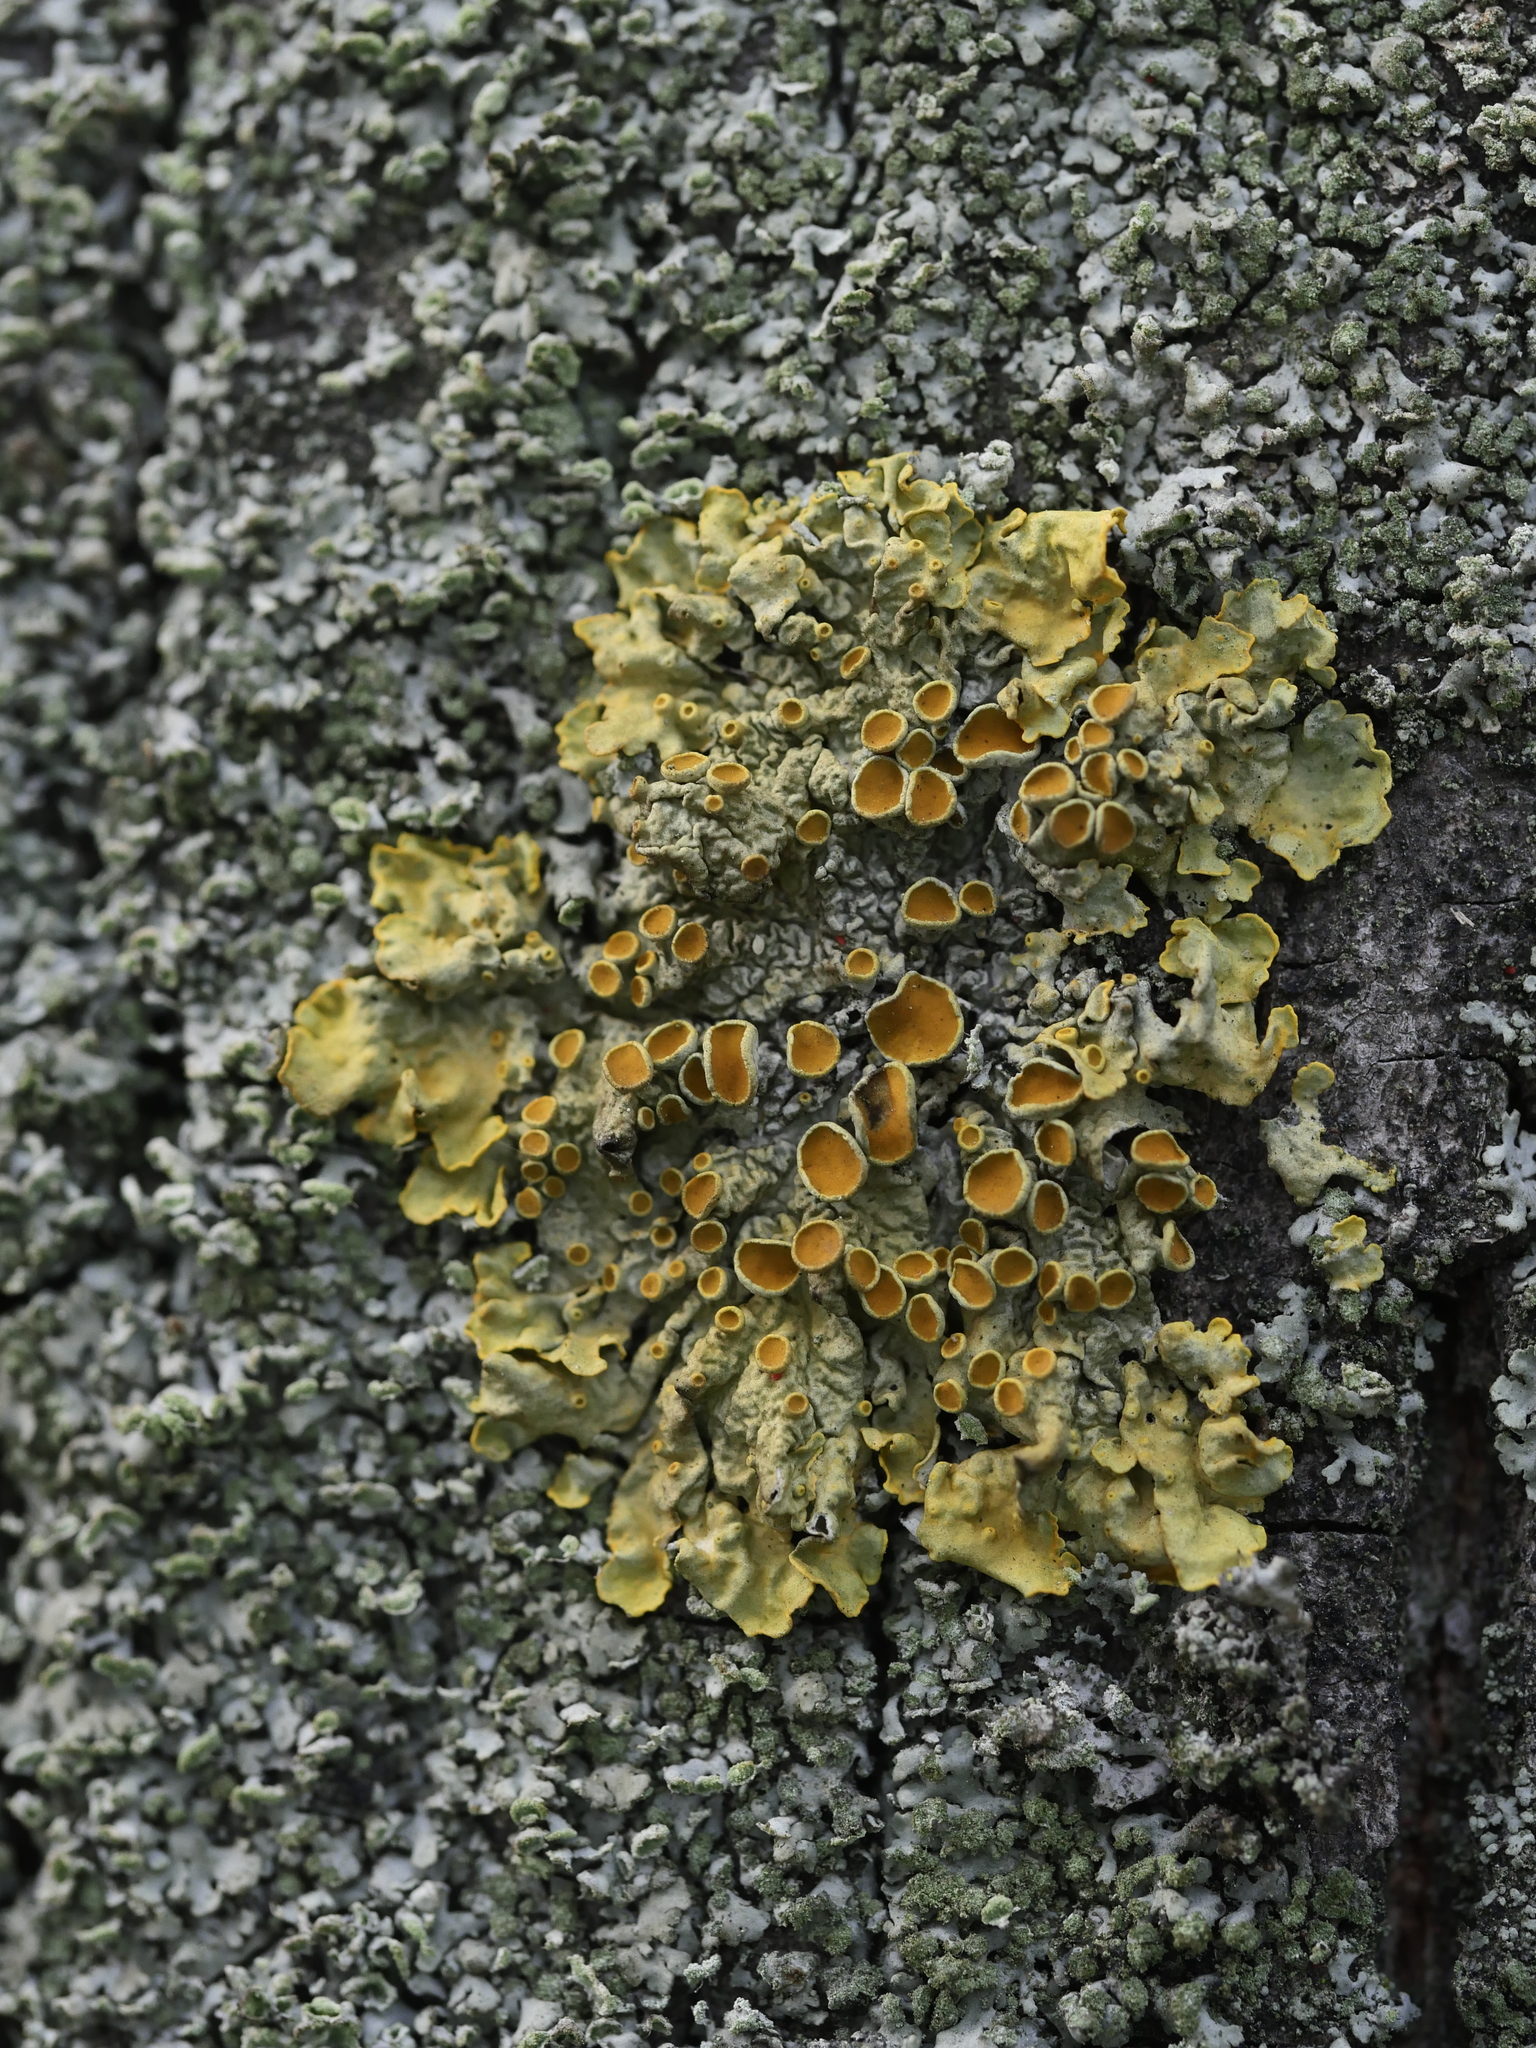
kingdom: Fungi
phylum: Ascomycota
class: Lecanoromycetes
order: Teloschistales
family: Teloschistaceae
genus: Xanthoria
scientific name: Xanthoria parietina
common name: Common orange lichen
